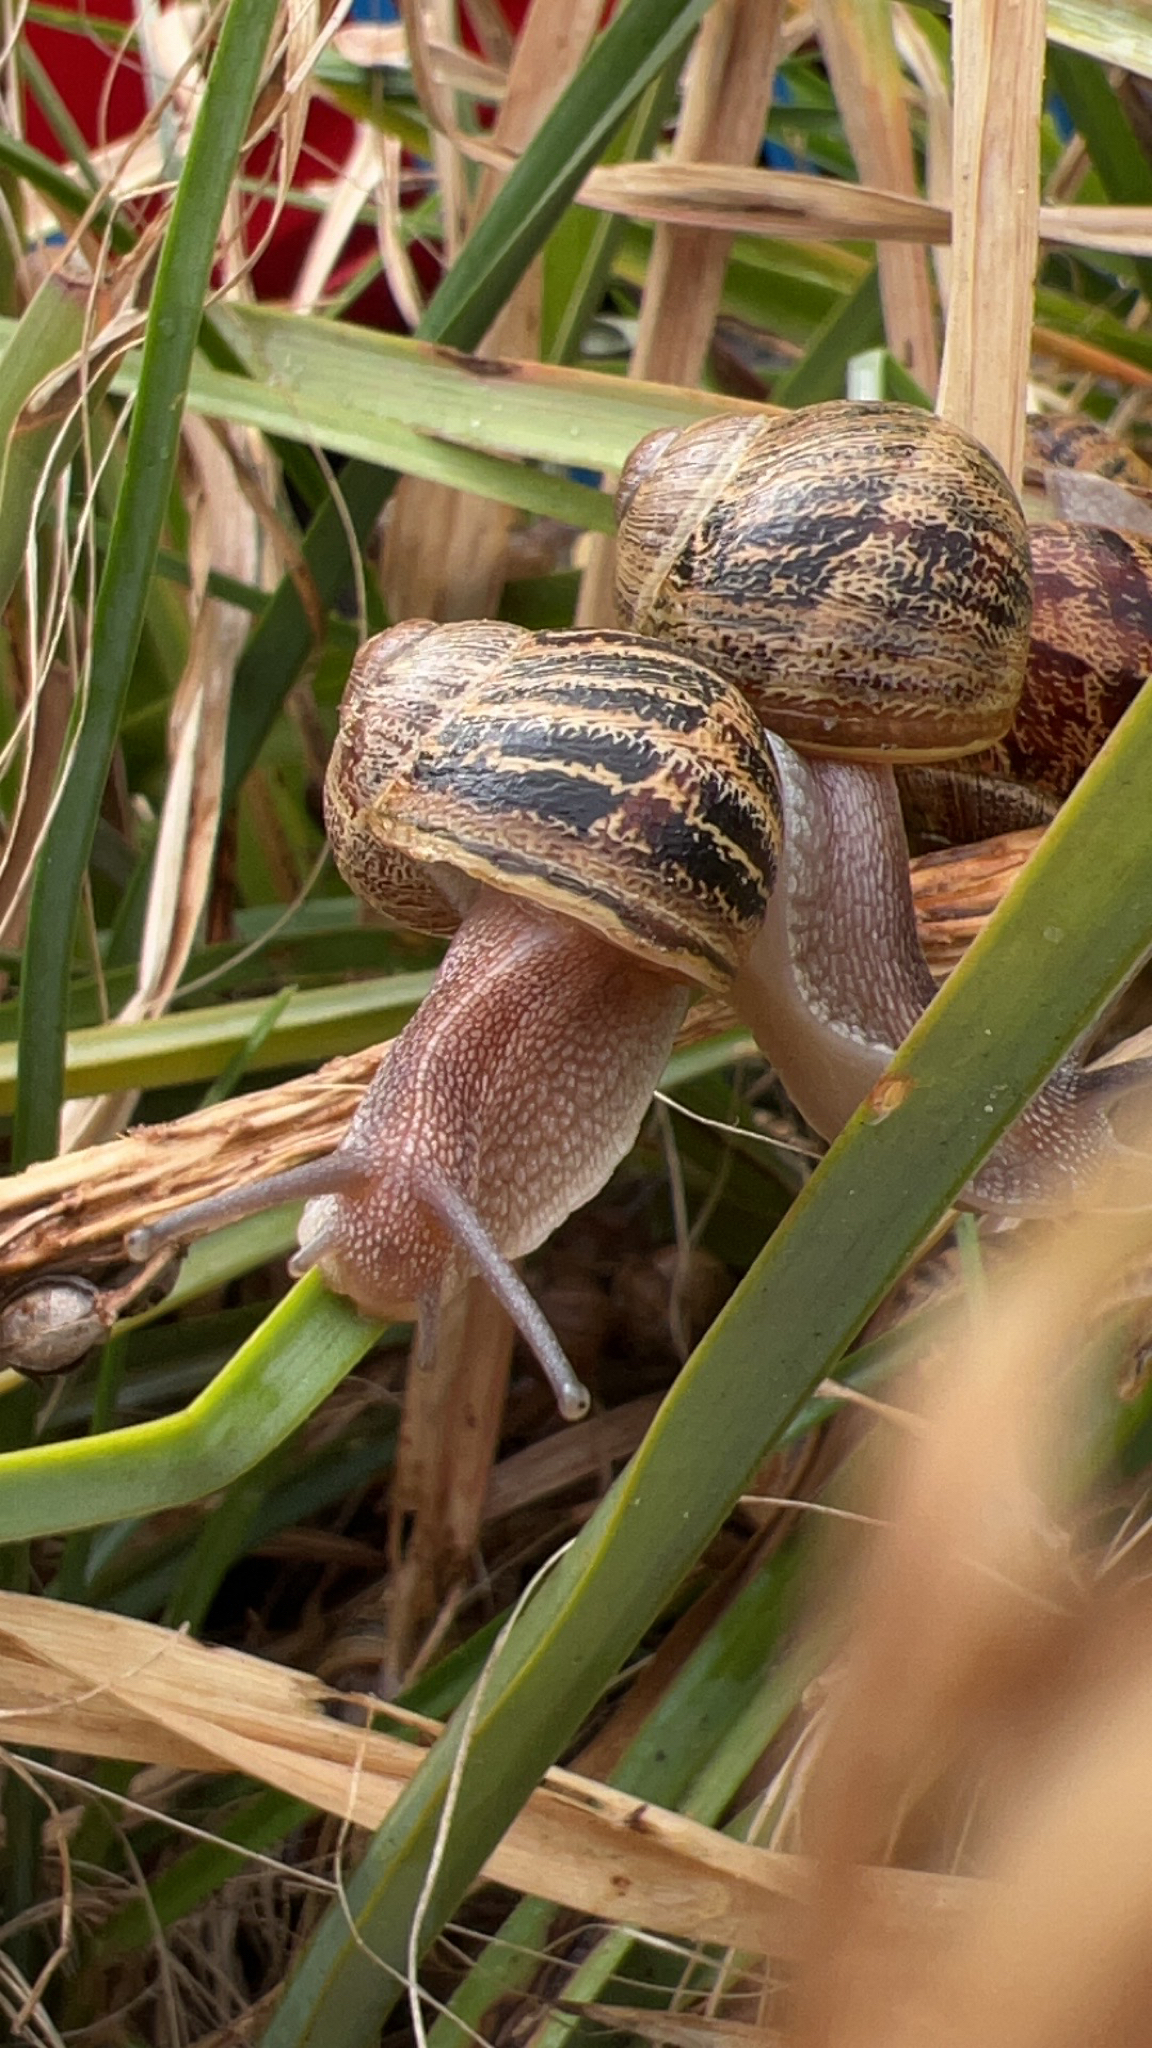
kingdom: Animalia
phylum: Mollusca
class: Gastropoda
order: Stylommatophora
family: Helicidae
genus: Cornu
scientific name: Cornu aspersum
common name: Brown garden snail
